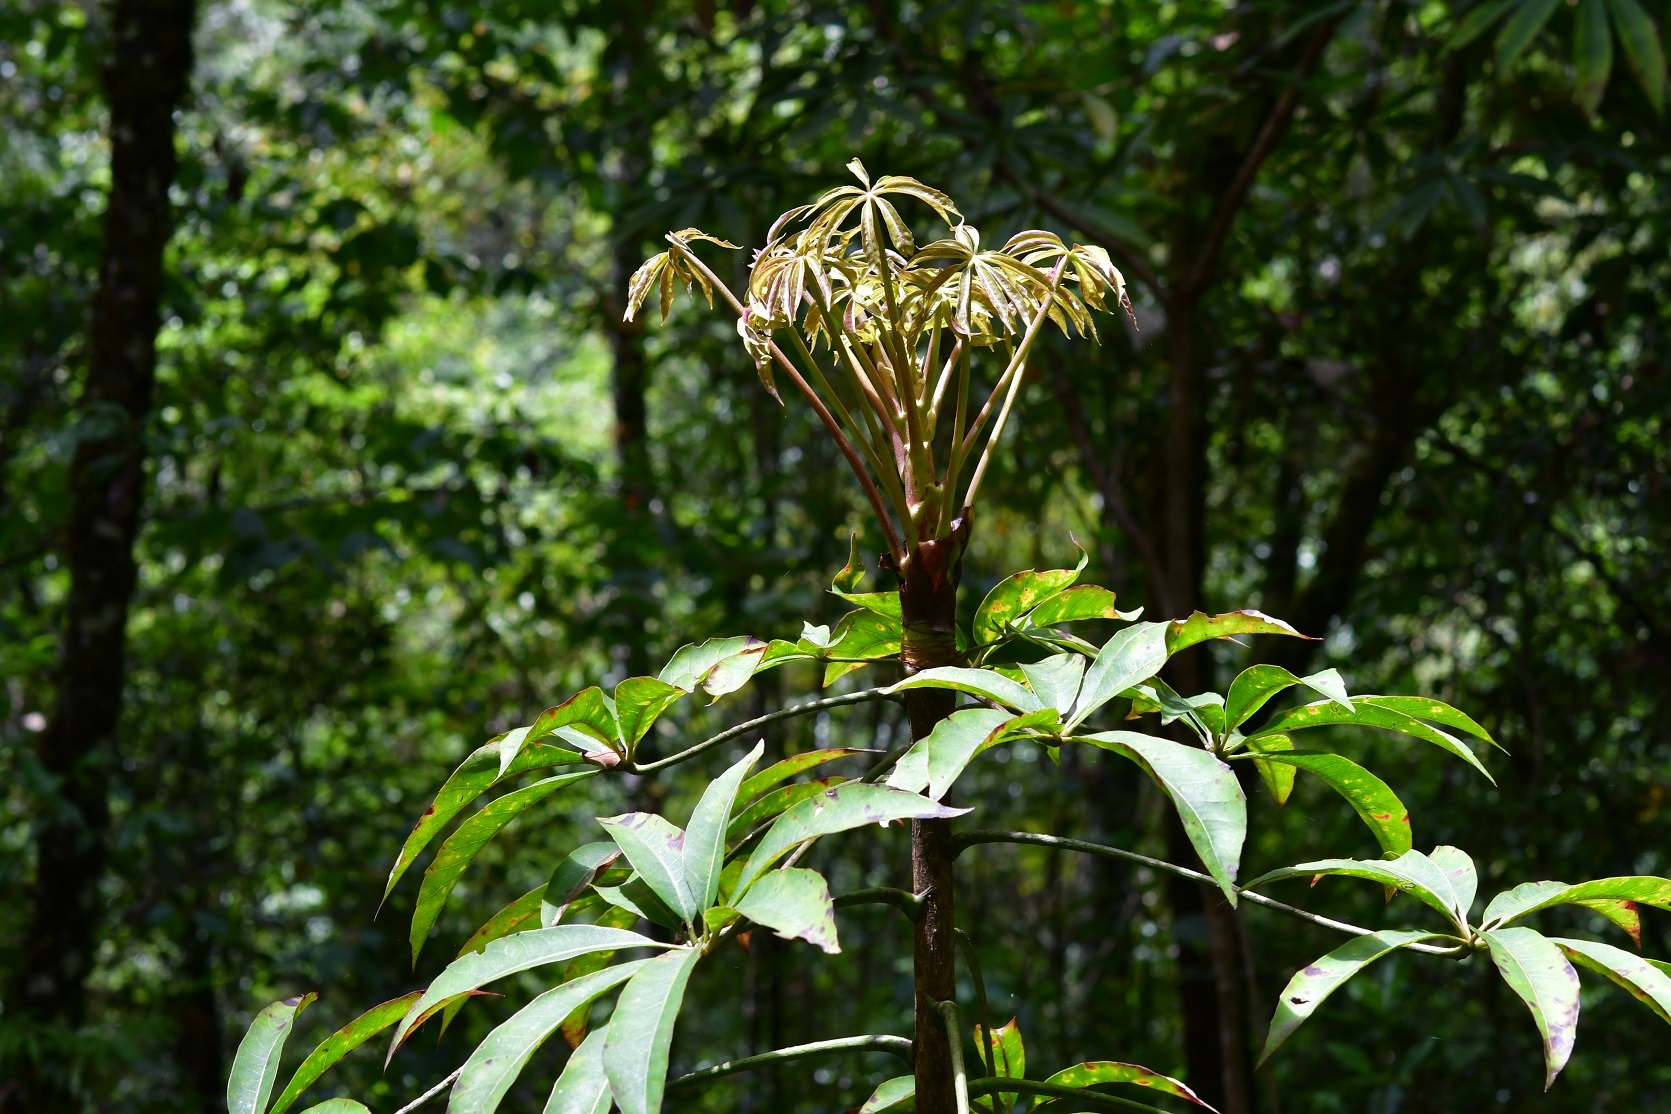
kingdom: Plantae
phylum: Tracheophyta
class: Magnoliopsida
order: Apiales
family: Araliaceae
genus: Oreopanax
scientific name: Oreopanax xalapensis
